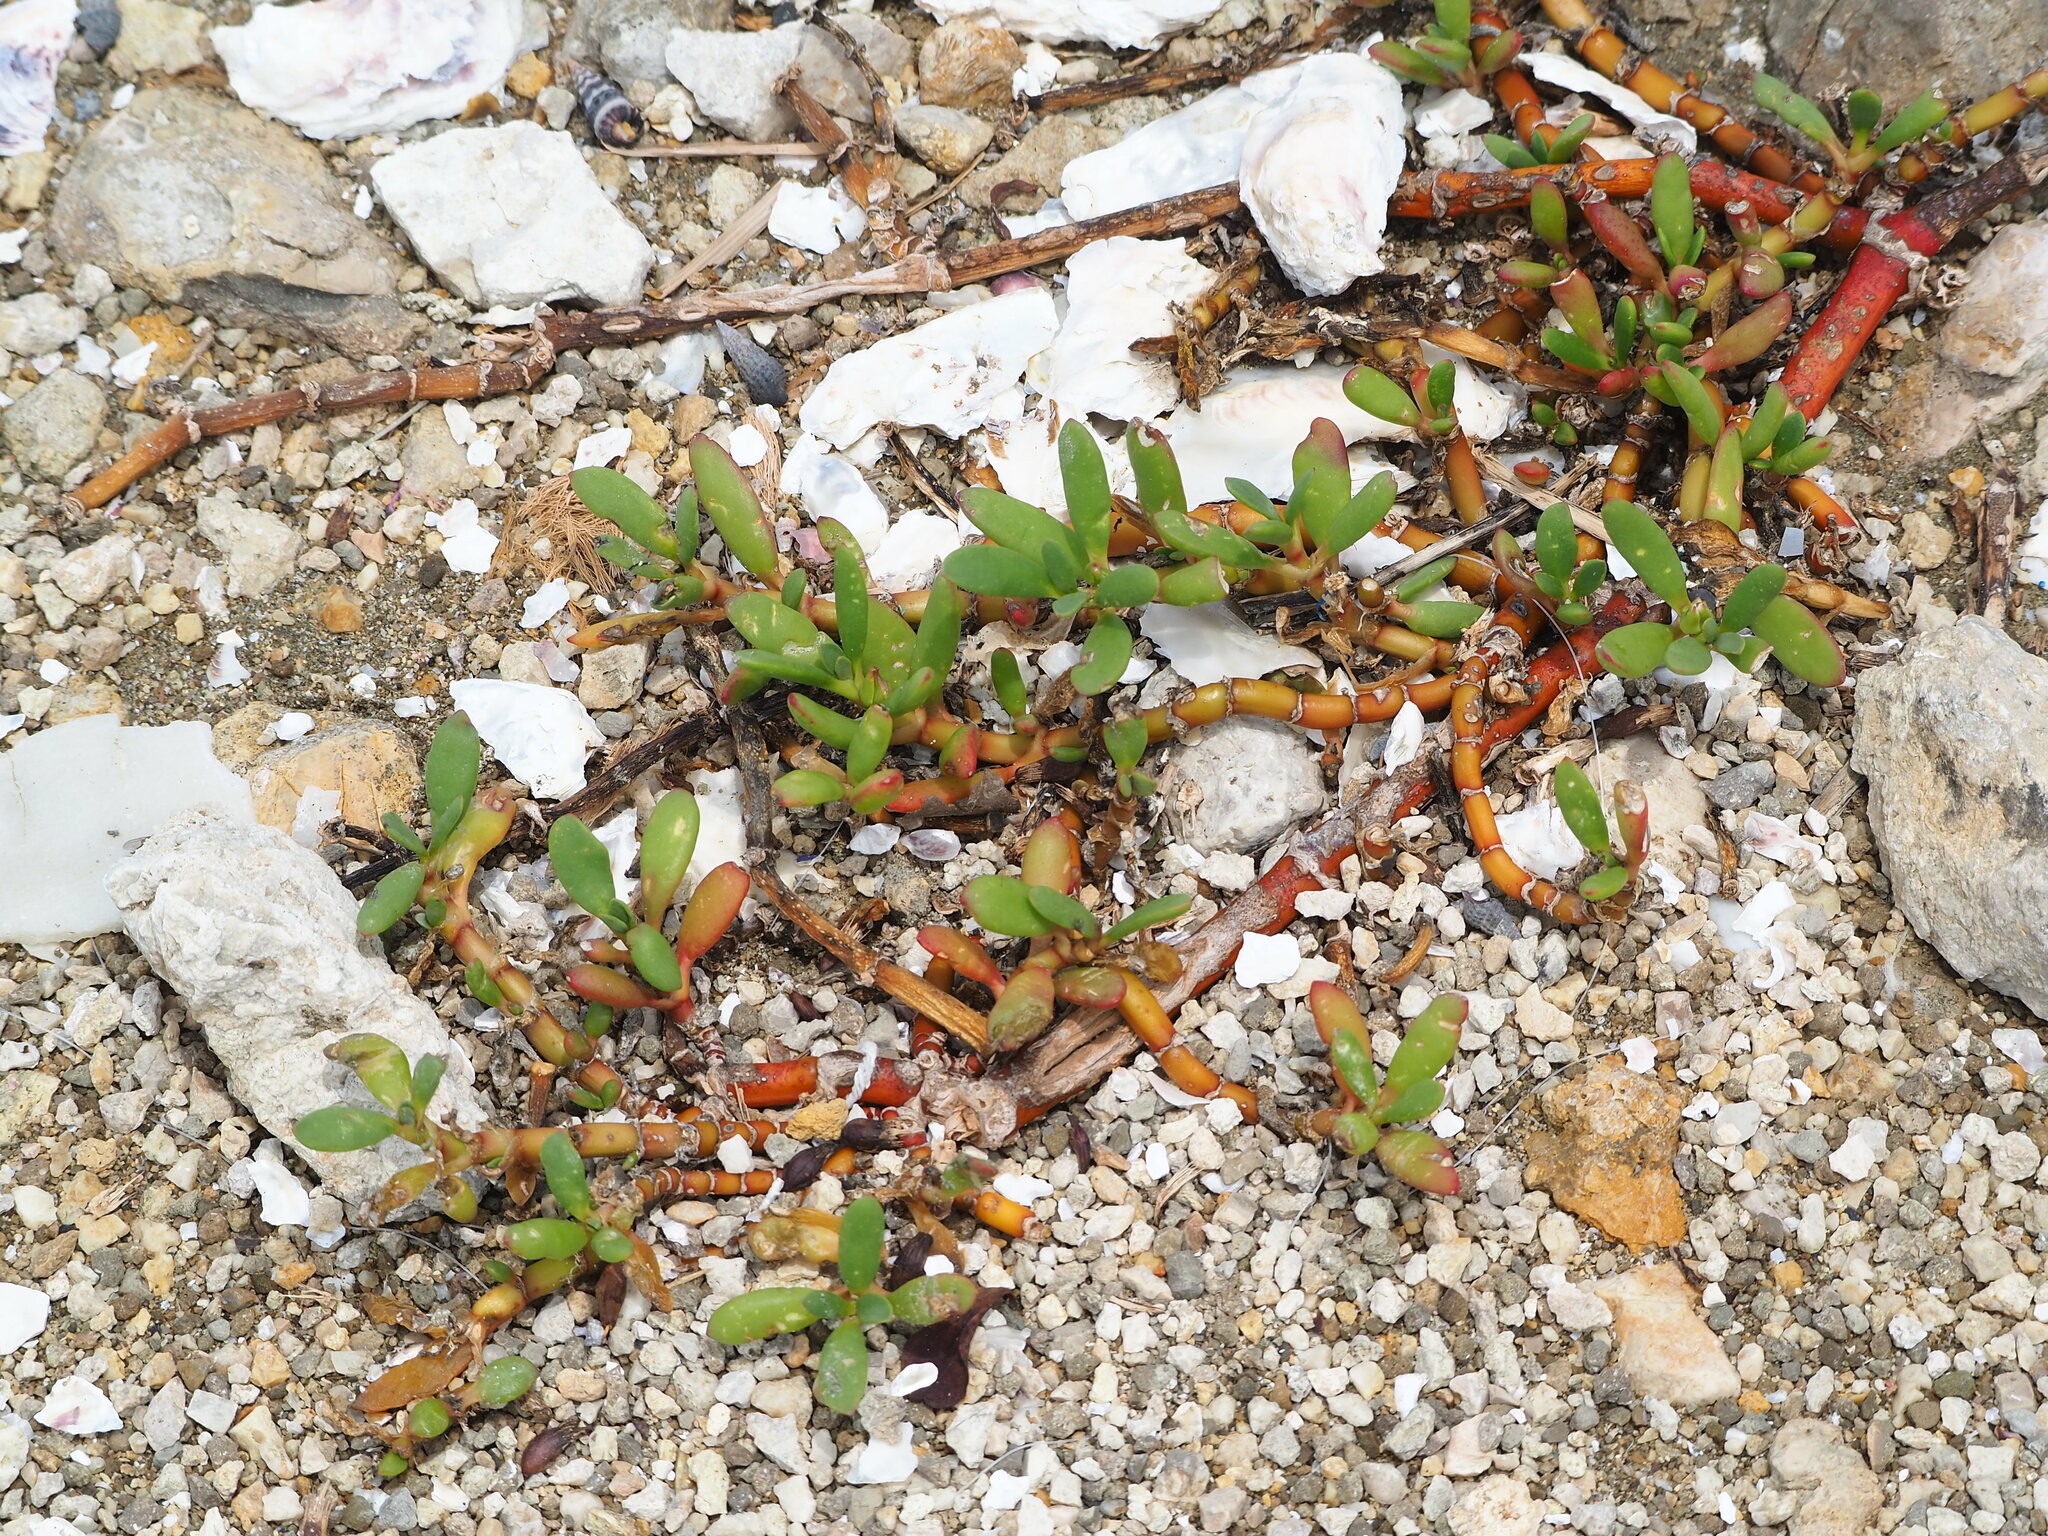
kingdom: Plantae
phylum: Tracheophyta
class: Magnoliopsida
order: Caryophyllales
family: Aizoaceae
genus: Sesuvium
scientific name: Sesuvium portulacastrum
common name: Sea-purslane
